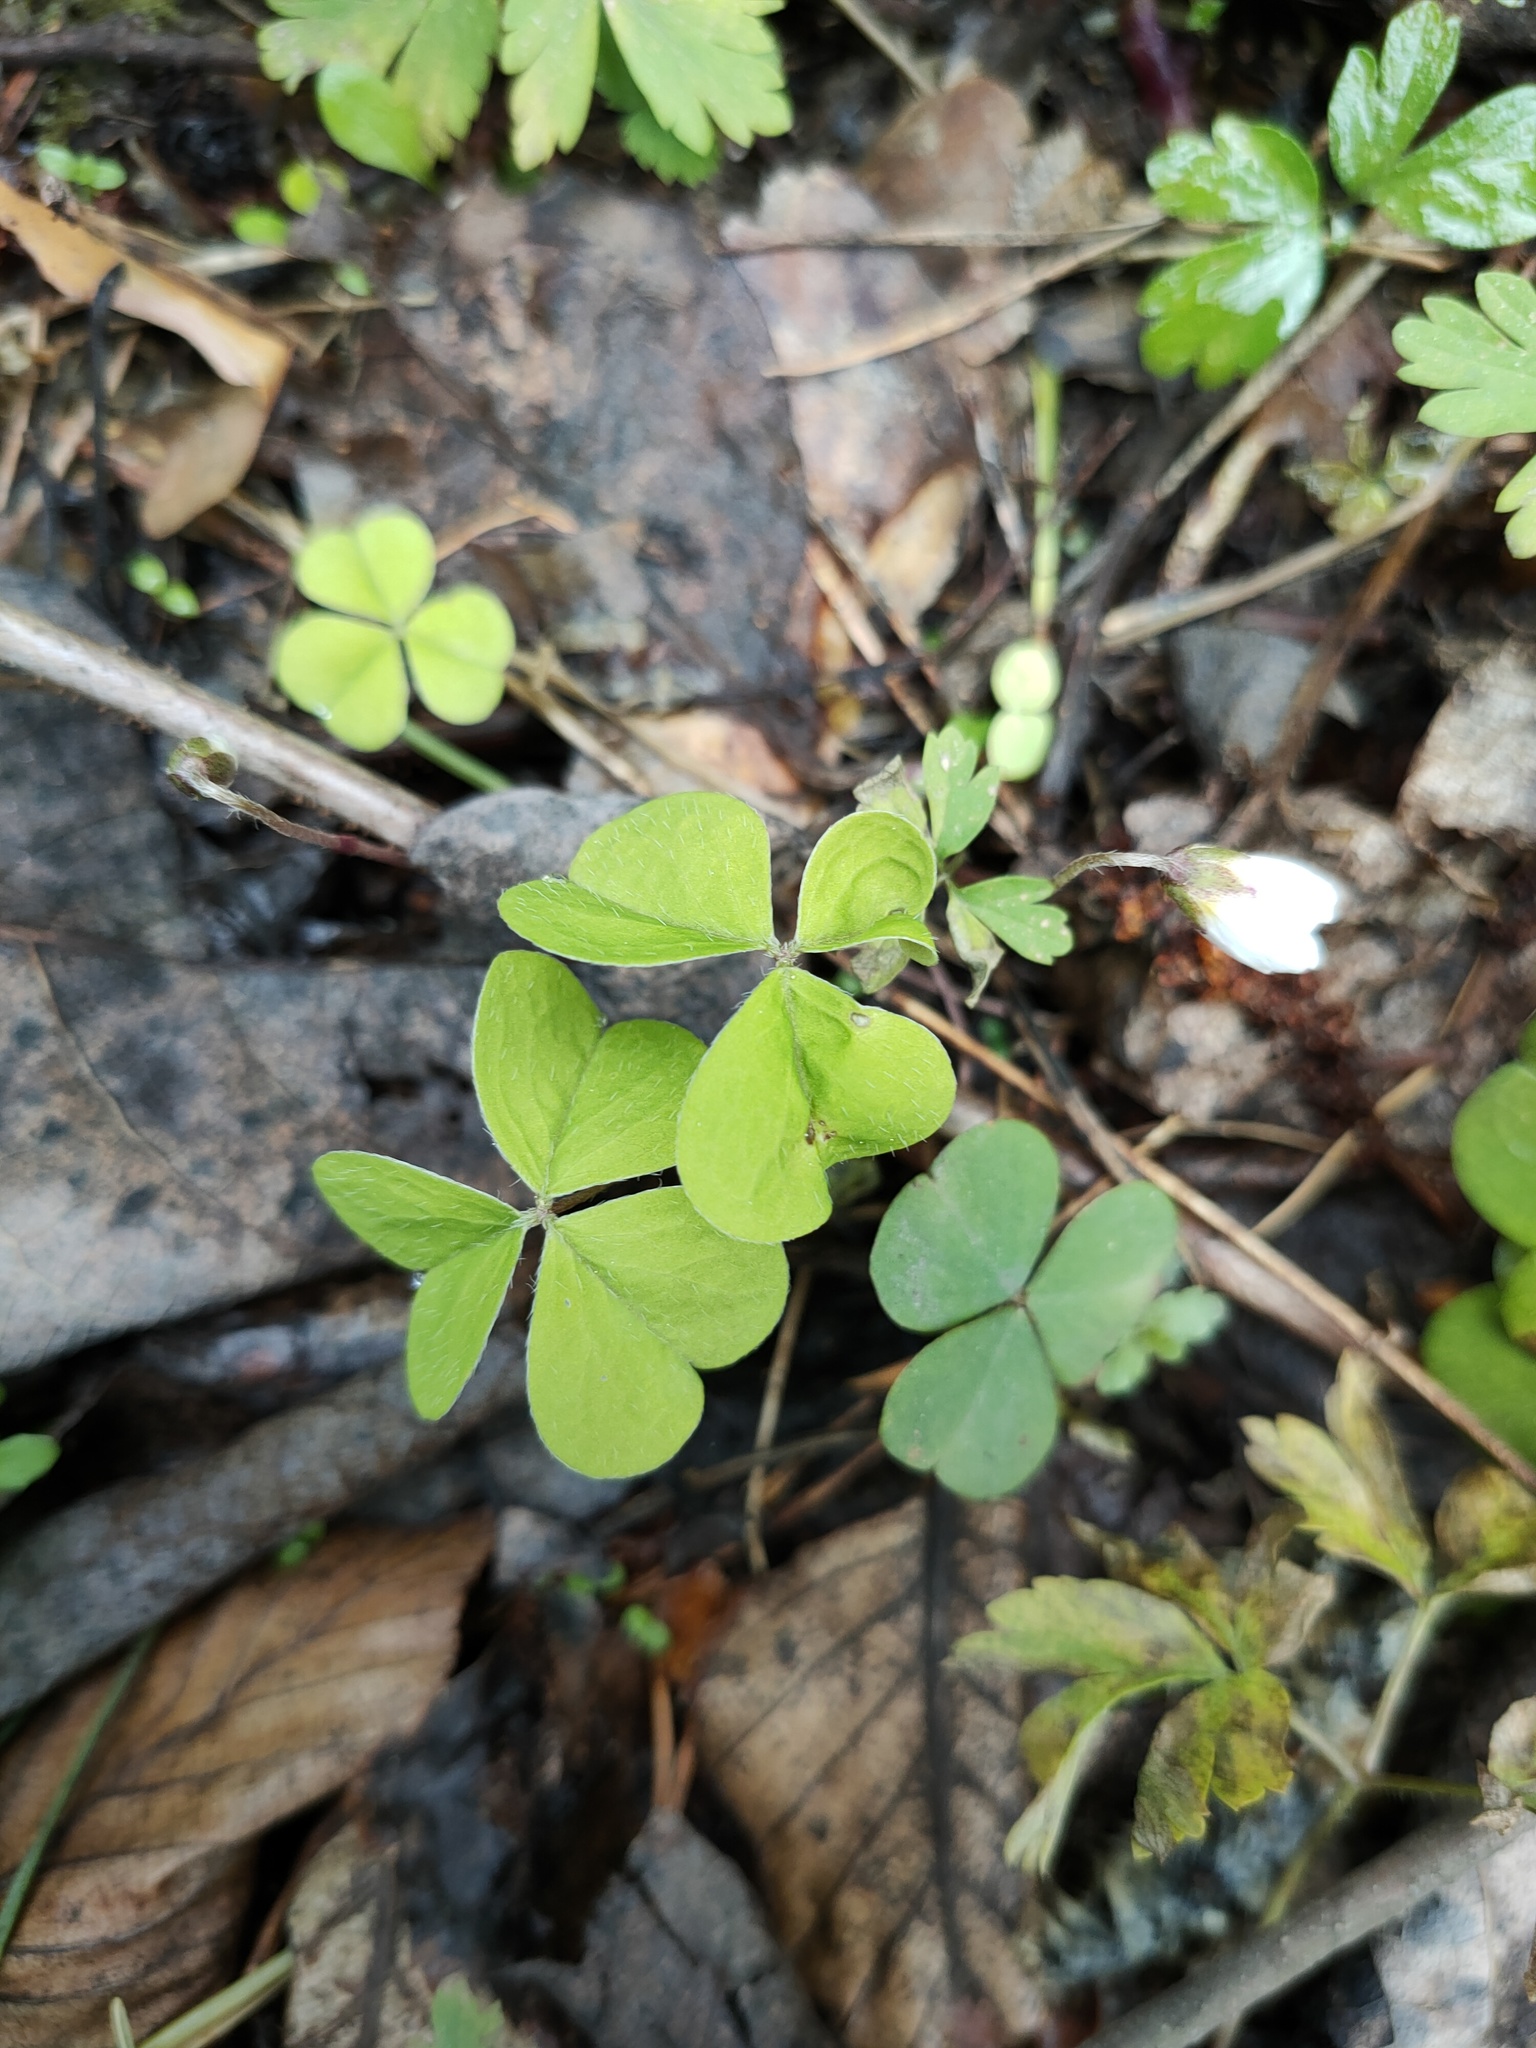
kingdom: Plantae
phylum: Tracheophyta
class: Magnoliopsida
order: Oxalidales
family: Oxalidaceae
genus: Oxalis
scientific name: Oxalis acetosella
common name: Wood-sorrel
